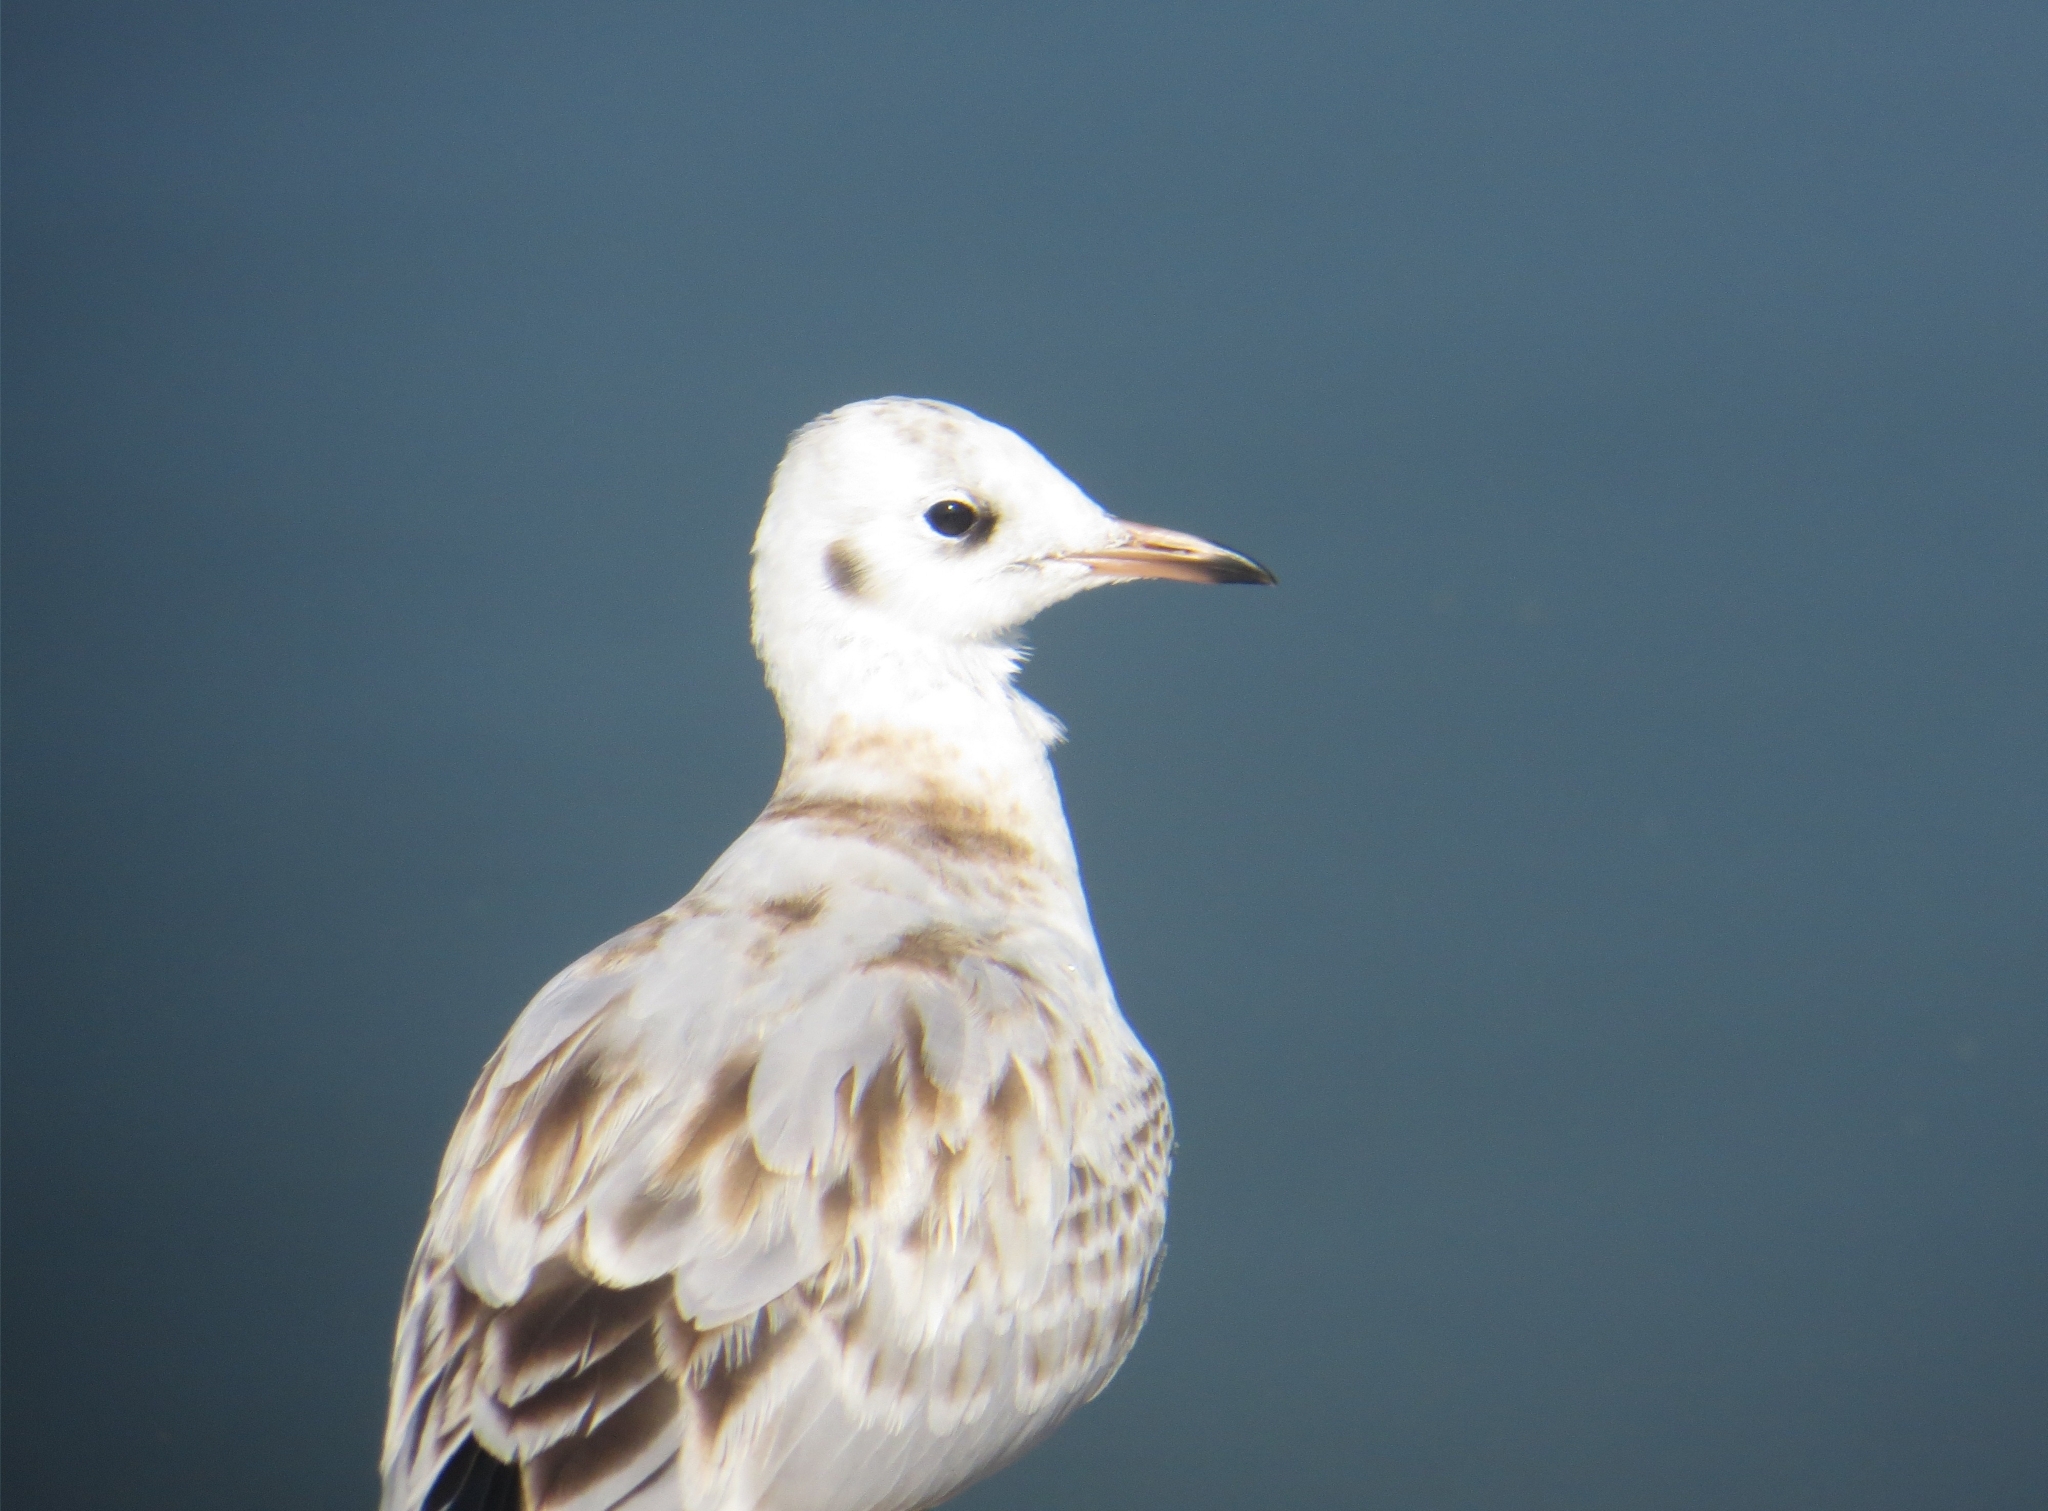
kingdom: Animalia
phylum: Chordata
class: Aves
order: Charadriiformes
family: Laridae
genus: Chroicocephalus
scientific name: Chroicocephalus ridibundus
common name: Black-headed gull
